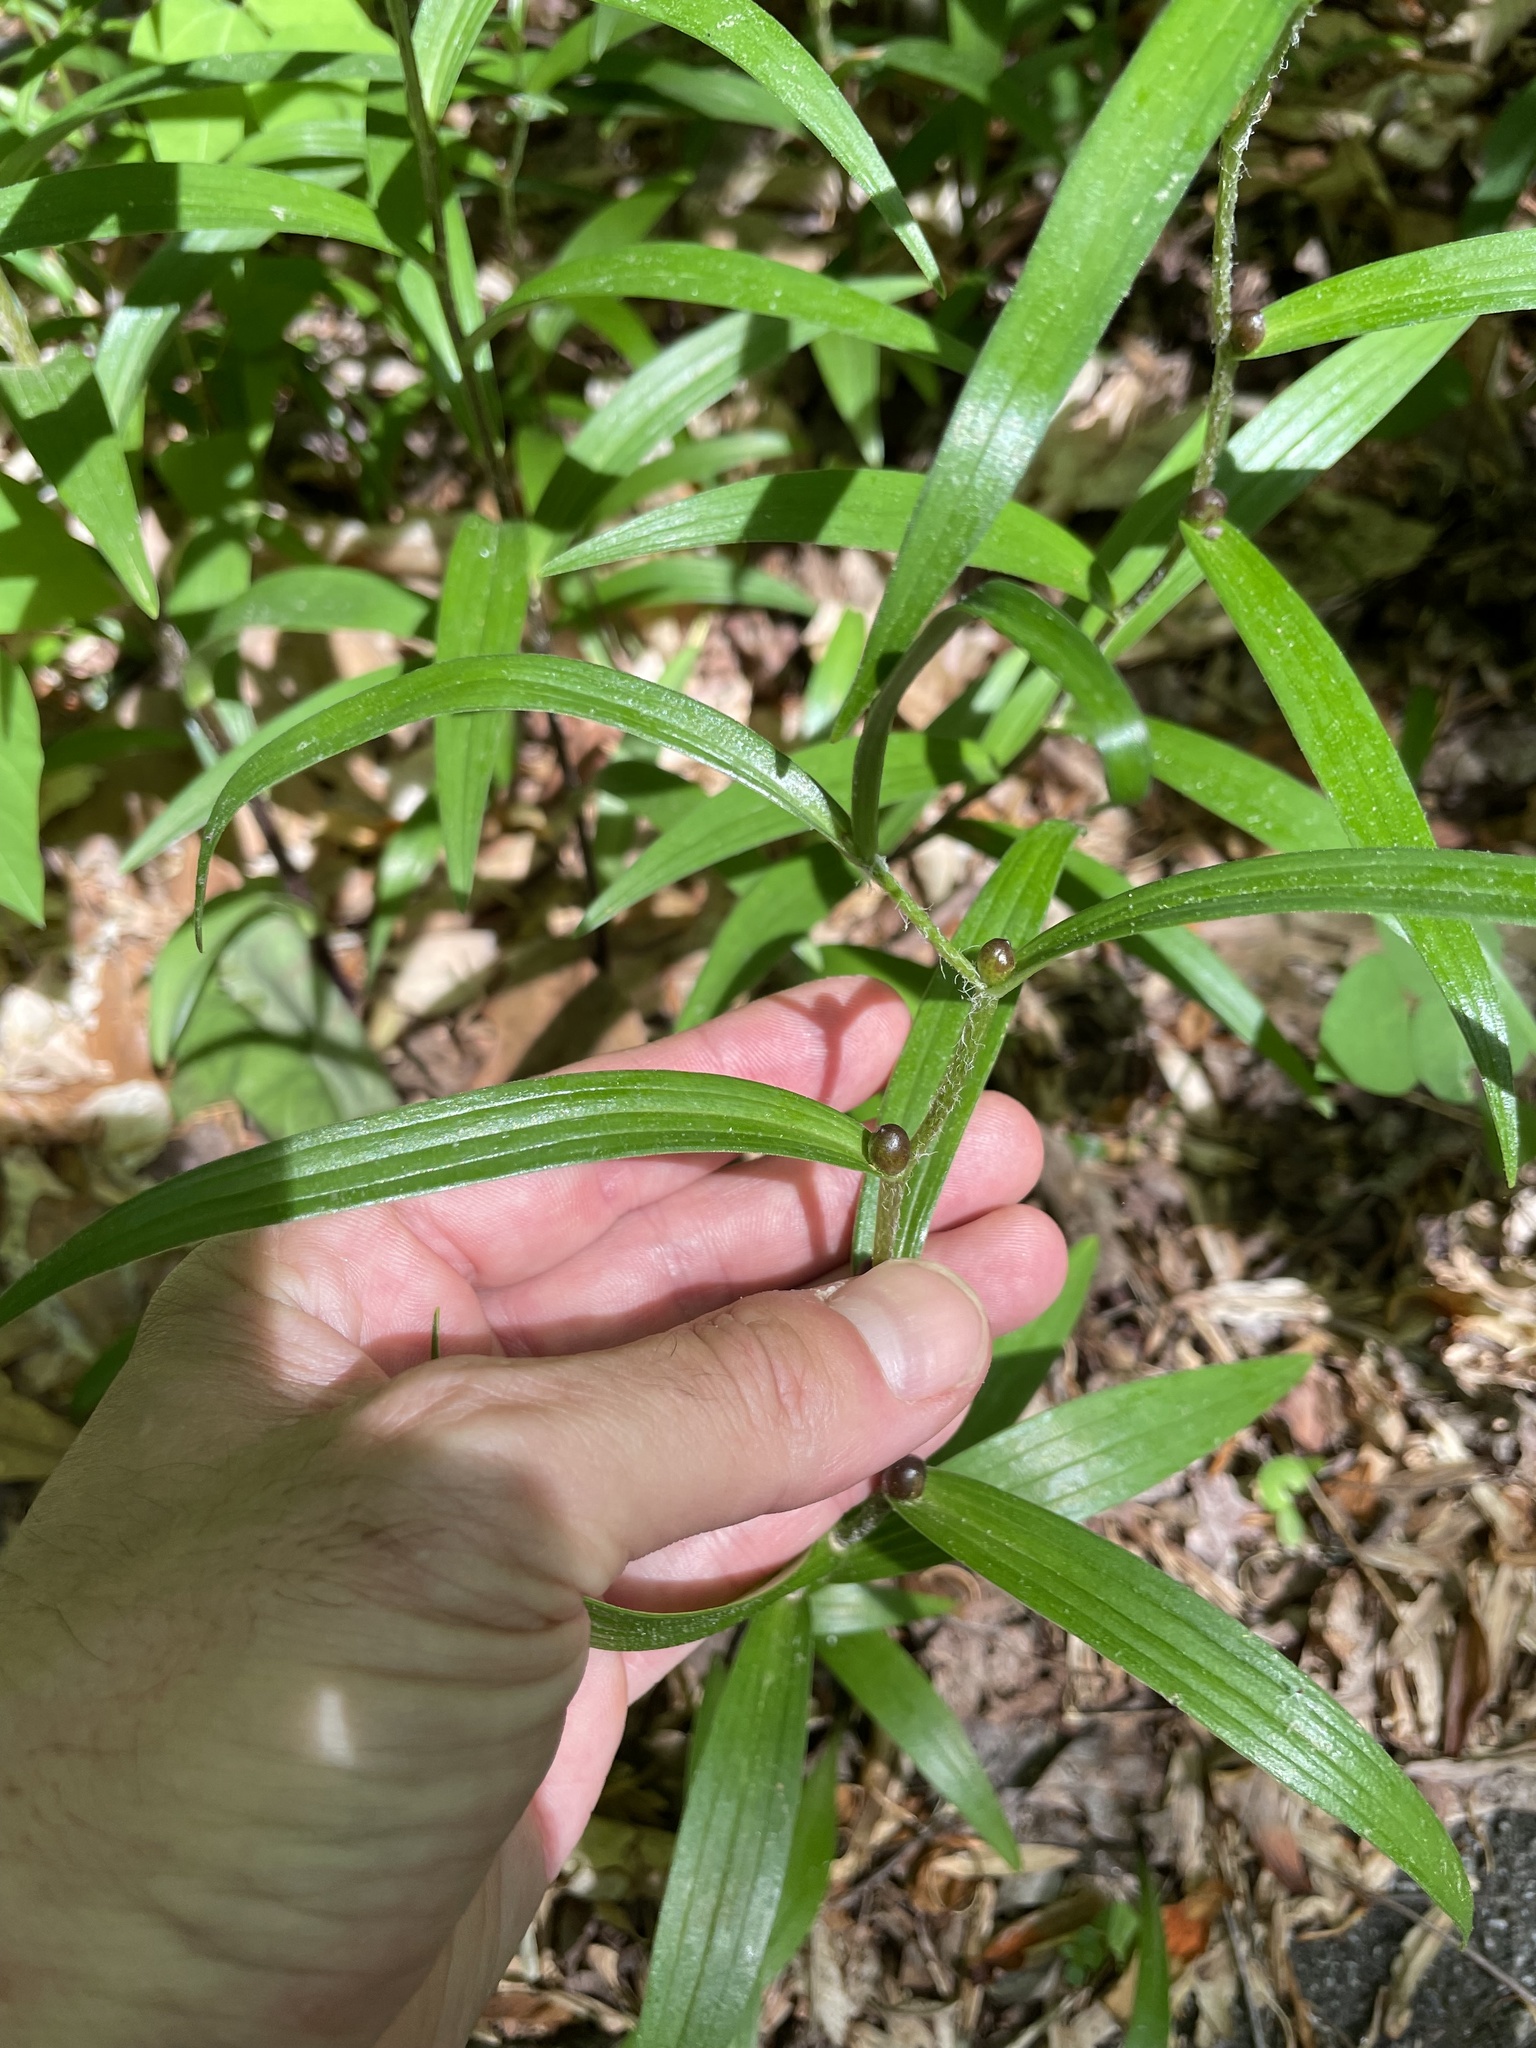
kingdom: Plantae
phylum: Tracheophyta
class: Liliopsida
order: Liliales
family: Liliaceae
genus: Lilium
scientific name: Lilium lancifolium
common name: Tiger lily
